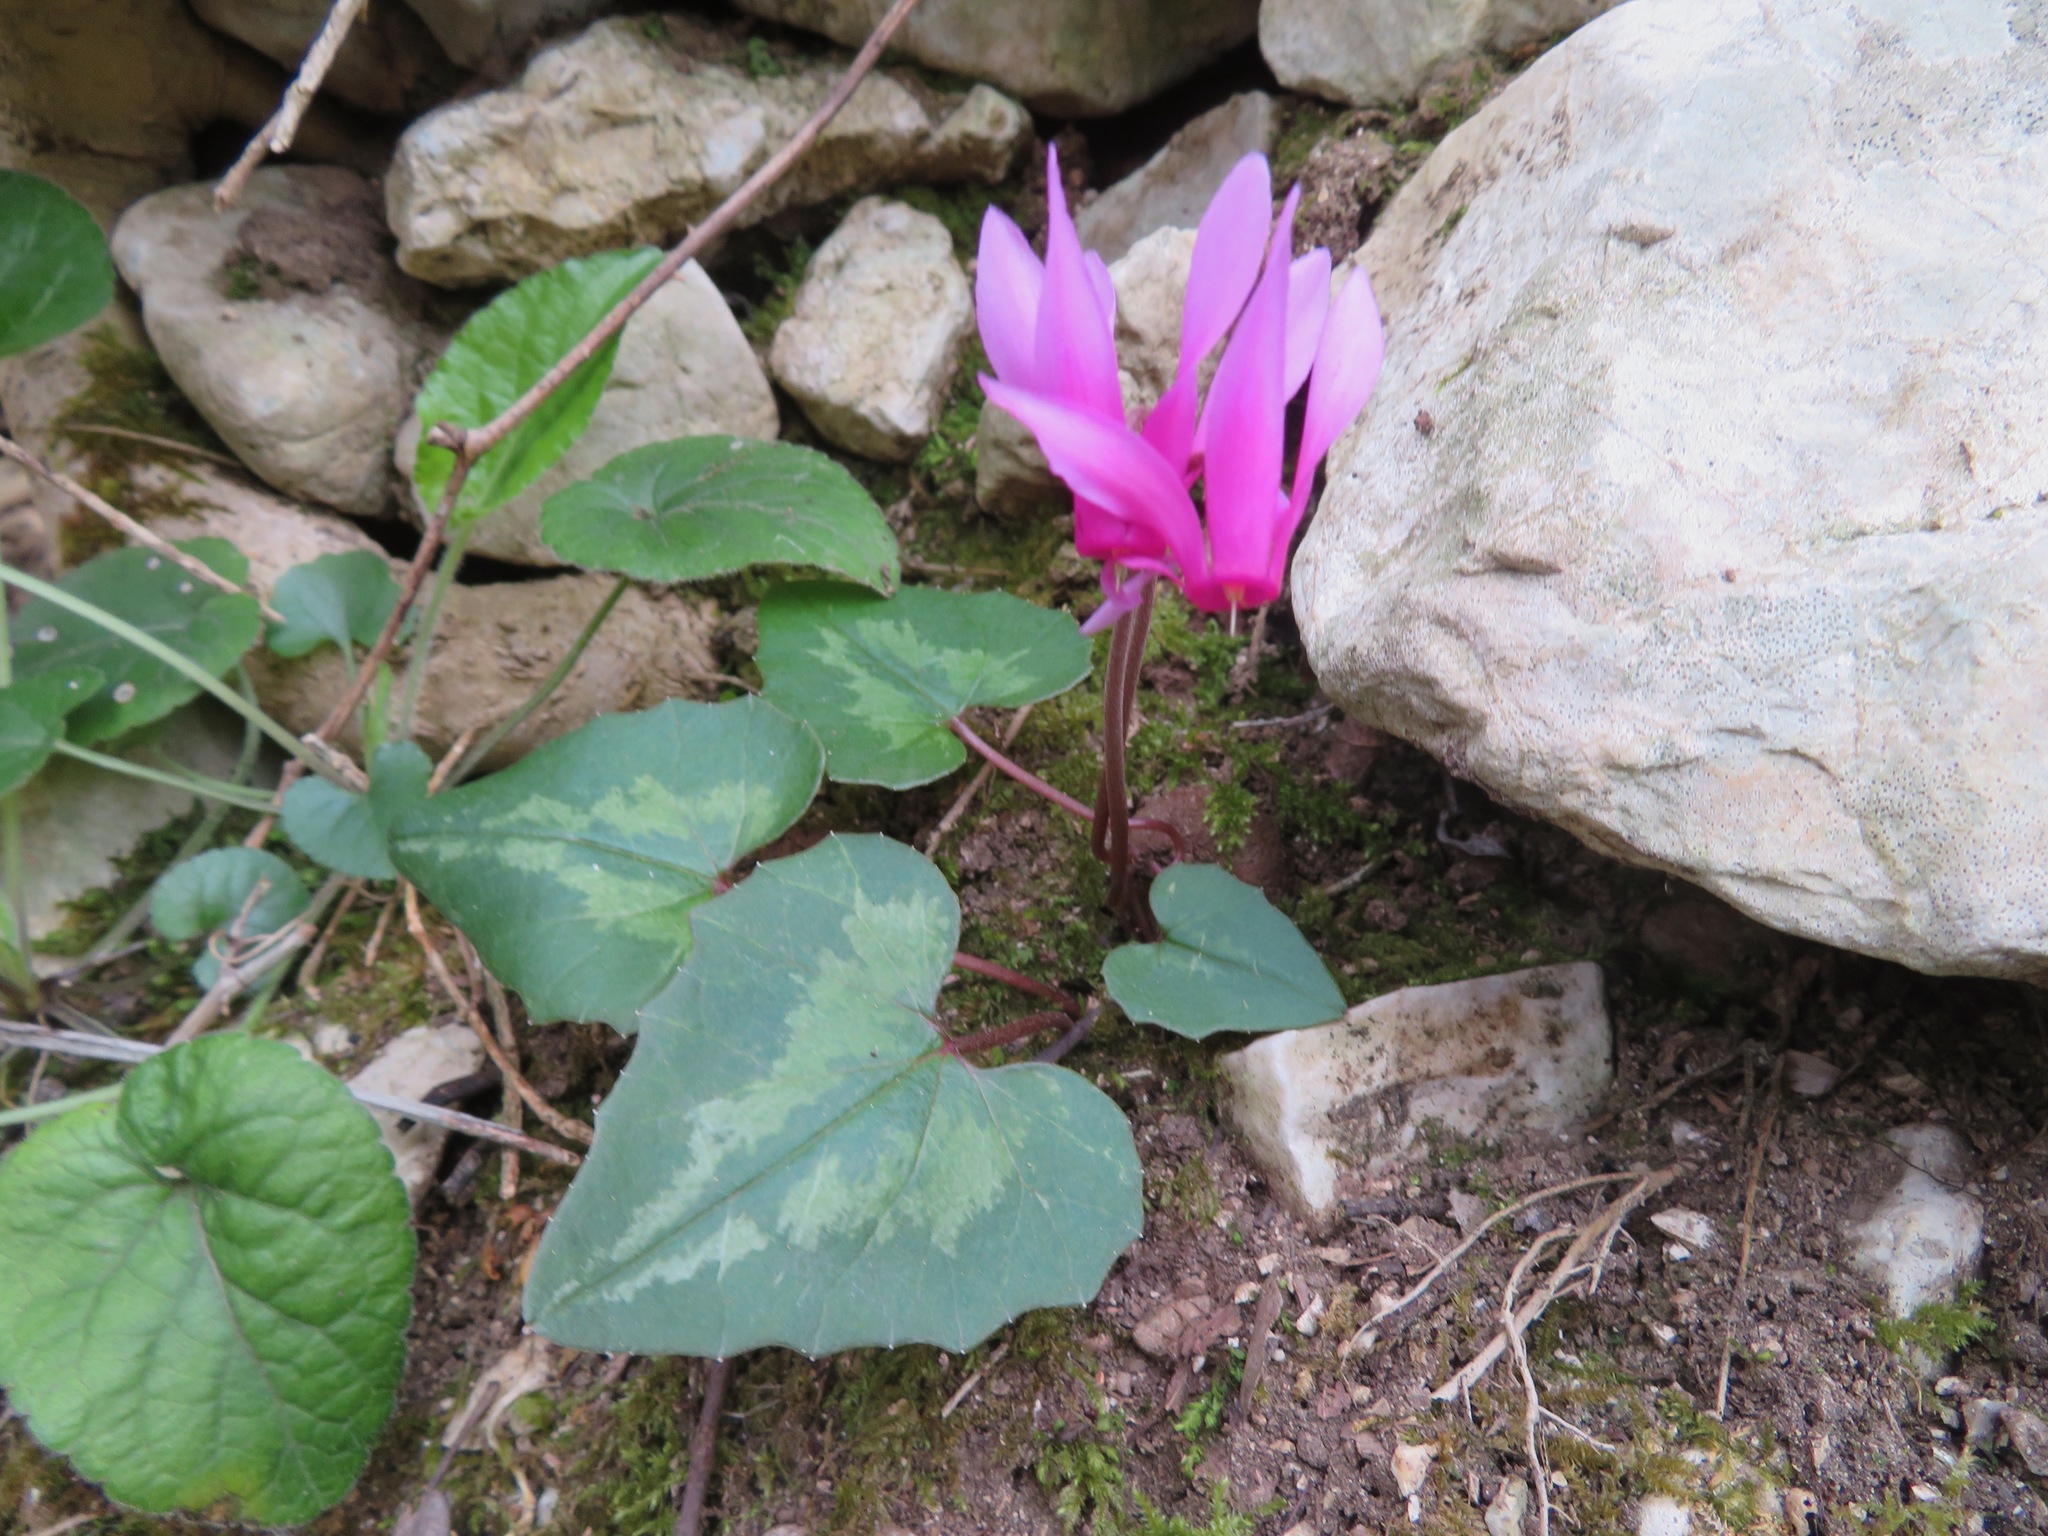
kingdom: Plantae
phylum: Tracheophyta
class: Magnoliopsida
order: Ericales
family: Primulaceae
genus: Cyclamen
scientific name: Cyclamen repandum
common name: Spring sowbread
